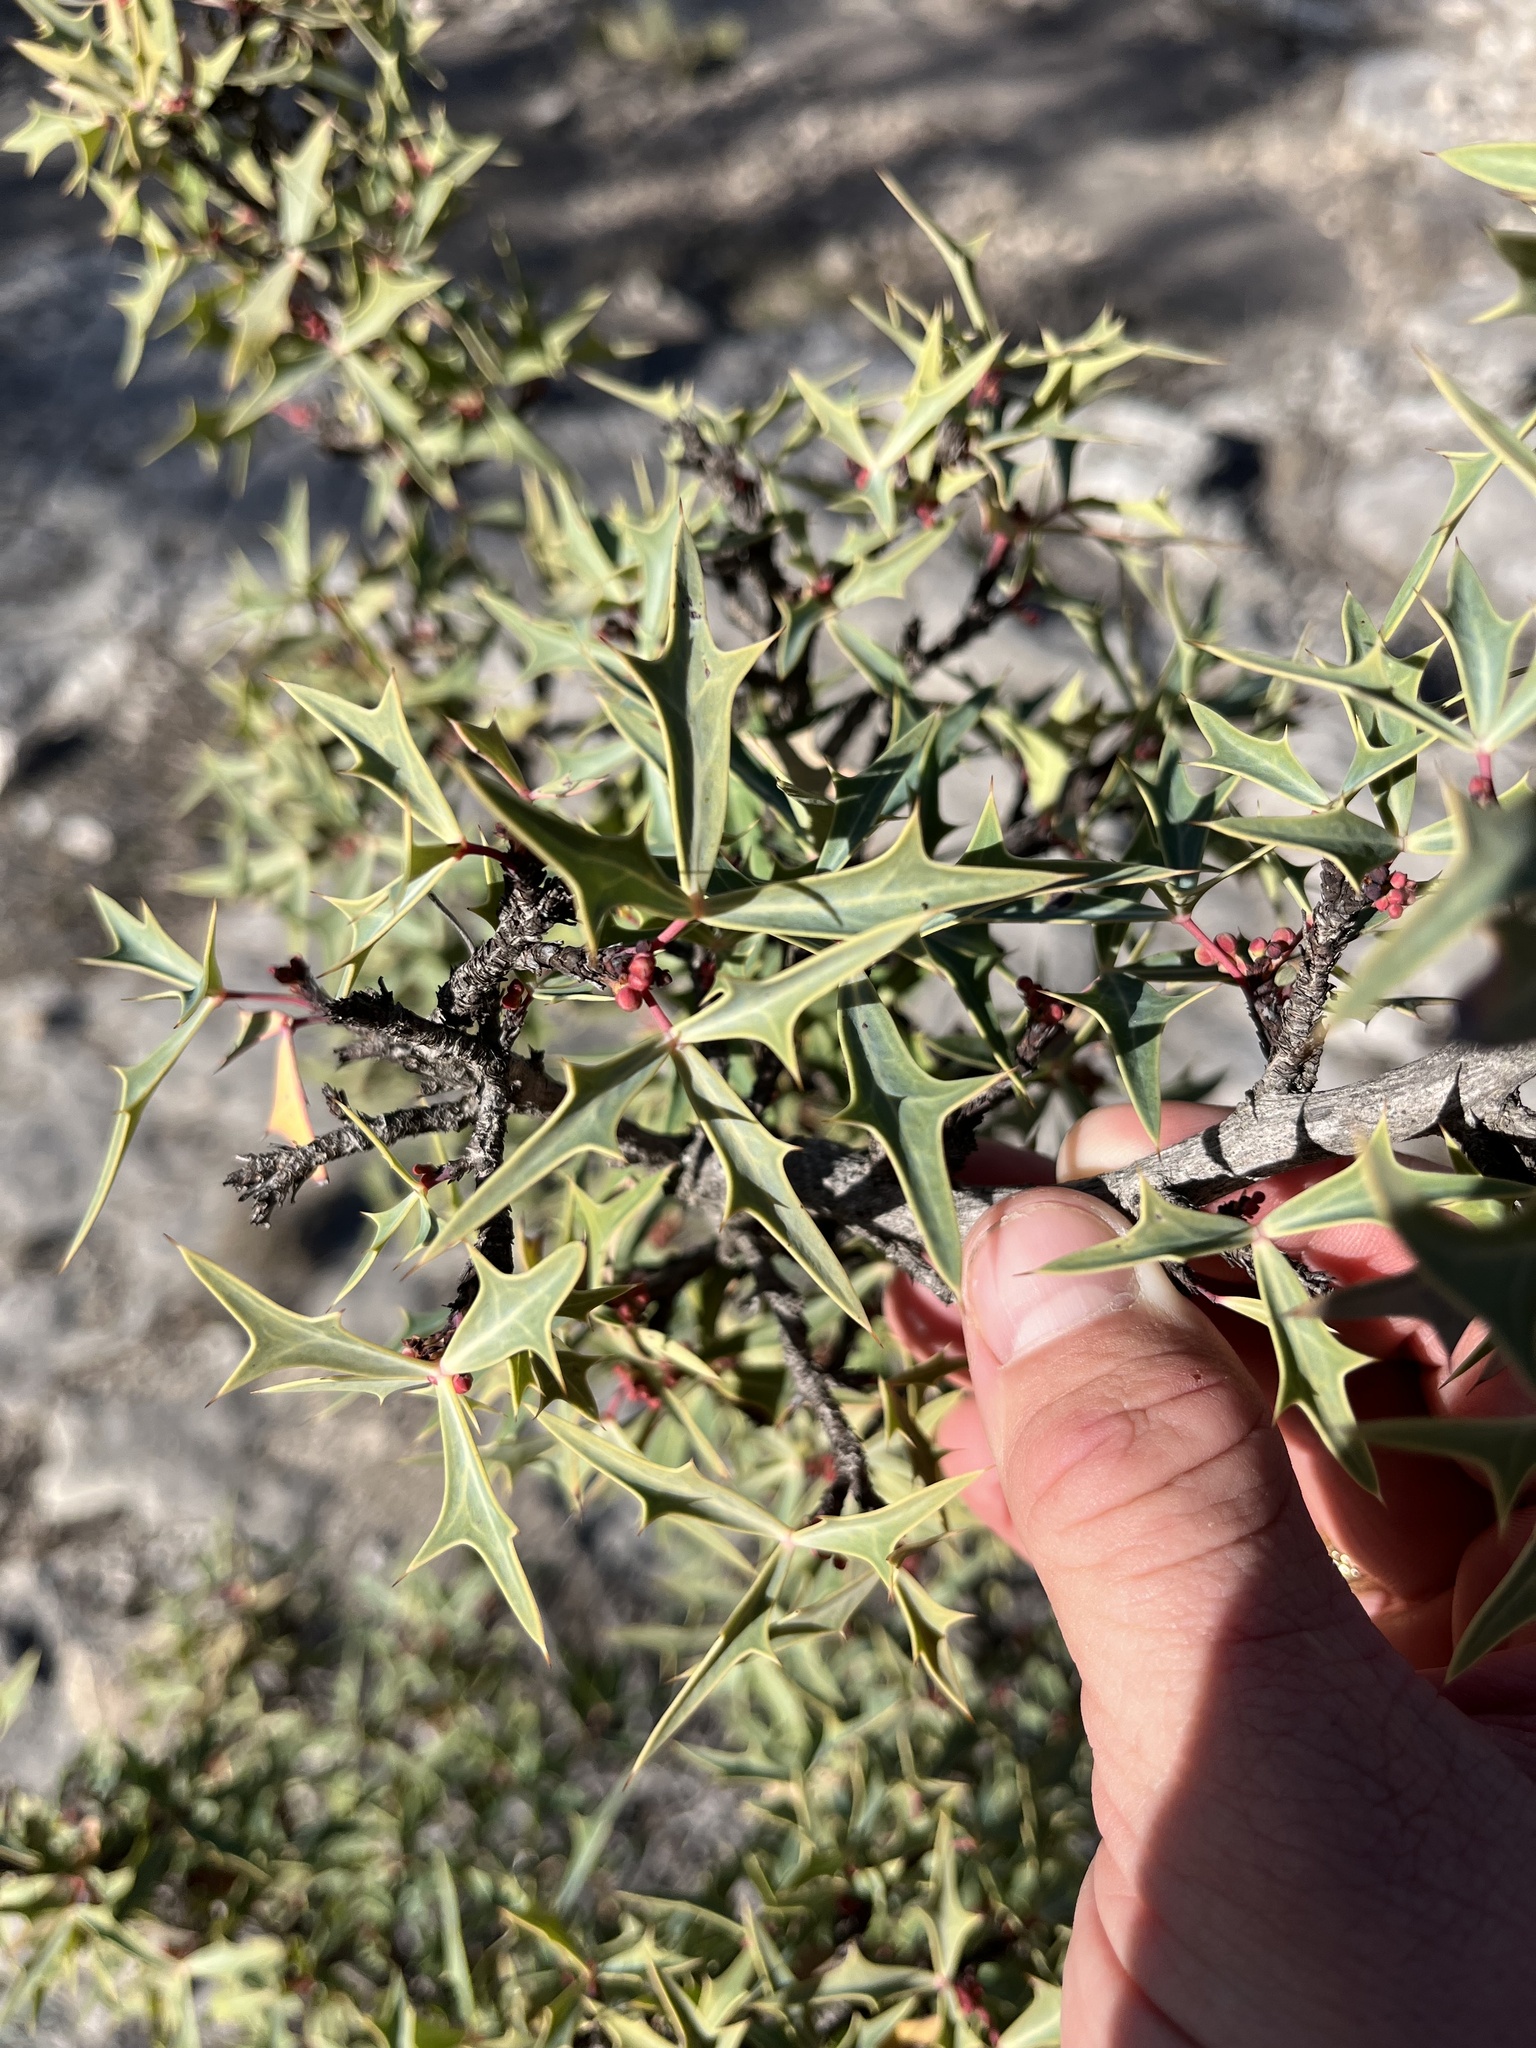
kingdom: Plantae
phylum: Tracheophyta
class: Magnoliopsida
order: Ranunculales
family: Berberidaceae
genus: Alloberberis
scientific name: Alloberberis trifoliolata
